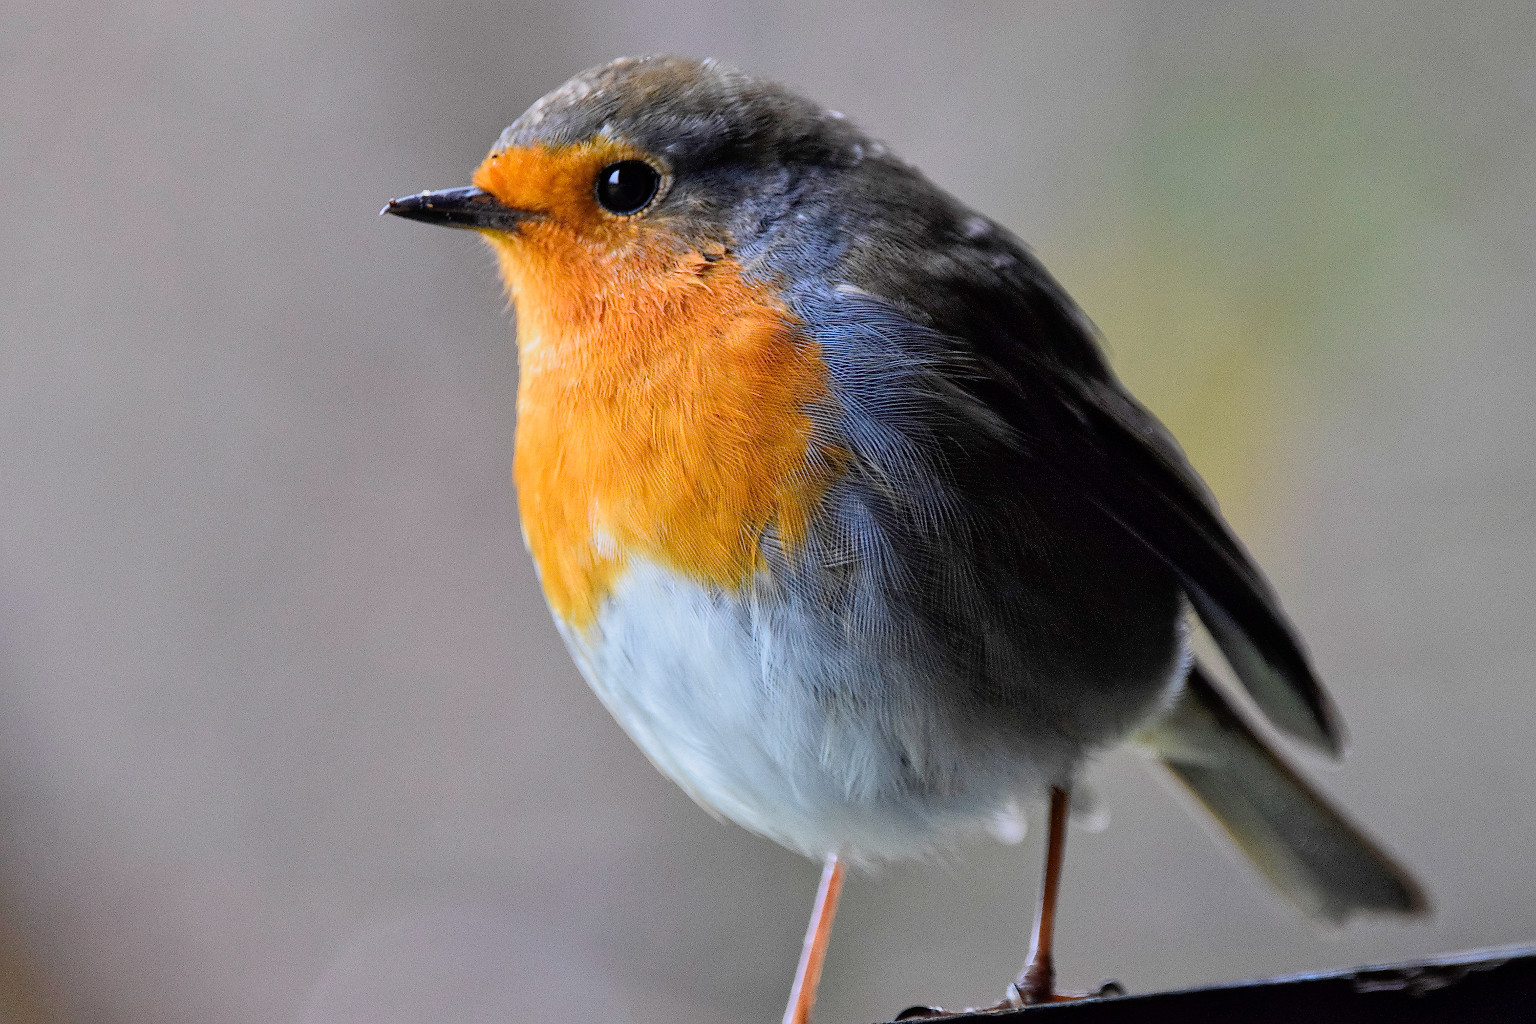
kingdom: Animalia
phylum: Chordata
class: Aves
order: Passeriformes
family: Muscicapidae
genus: Erithacus
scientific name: Erithacus rubecula
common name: European robin
